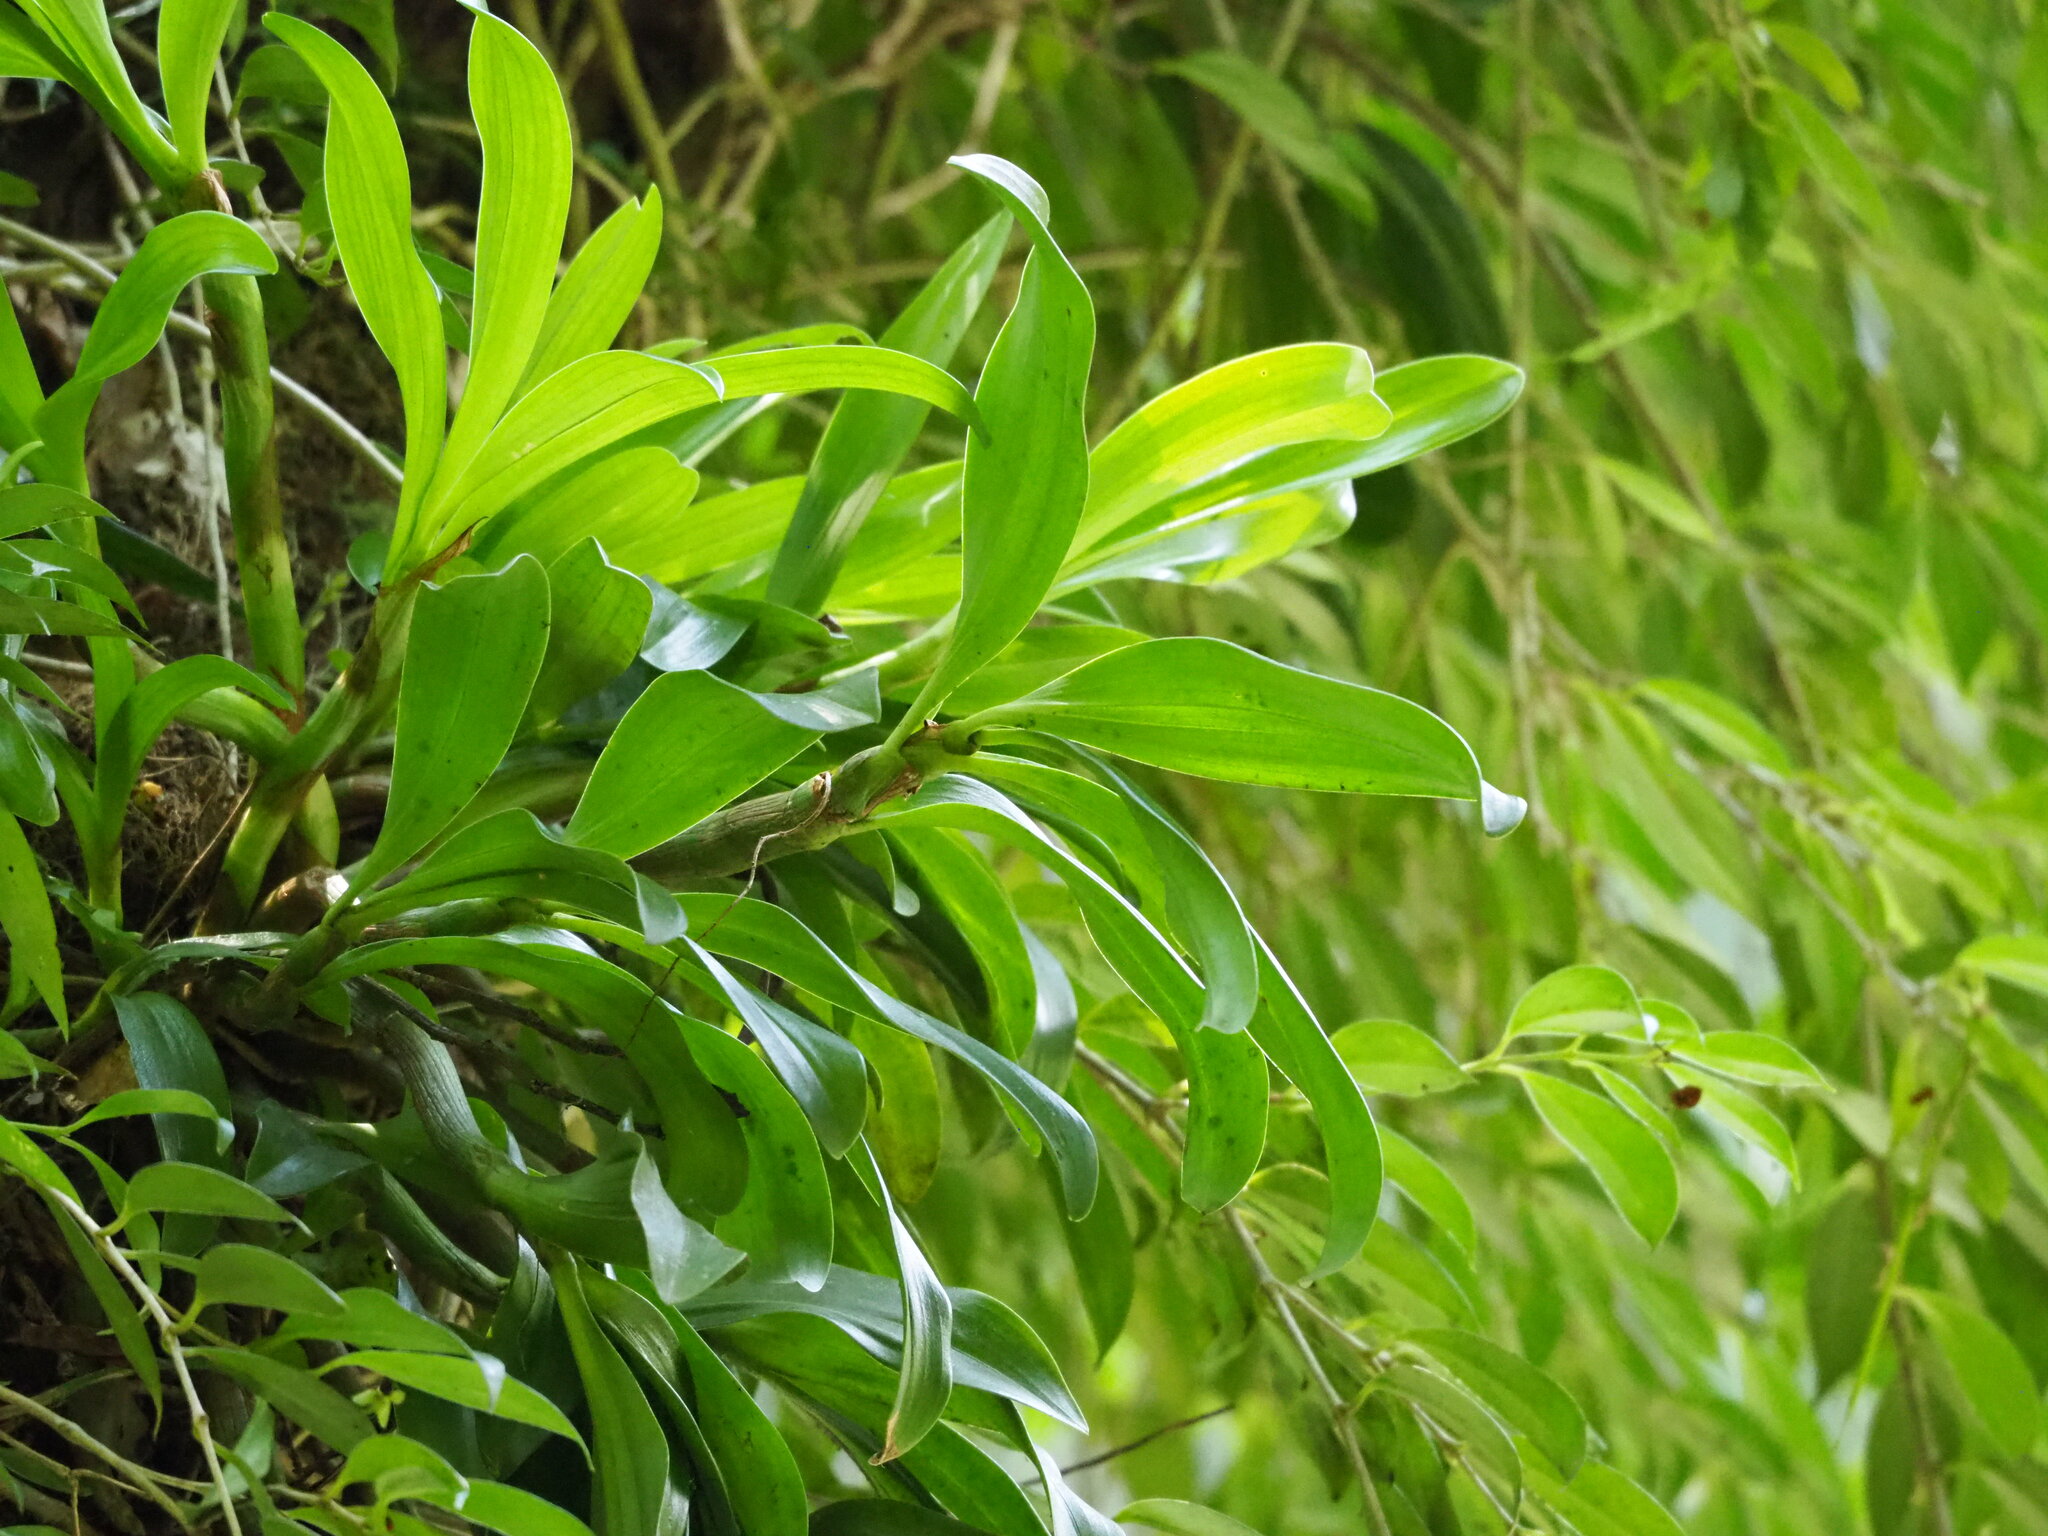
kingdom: Plantae
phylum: Tracheophyta
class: Liliopsida
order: Asparagales
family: Orchidaceae
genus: Pinalia
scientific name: Pinalia ovata
